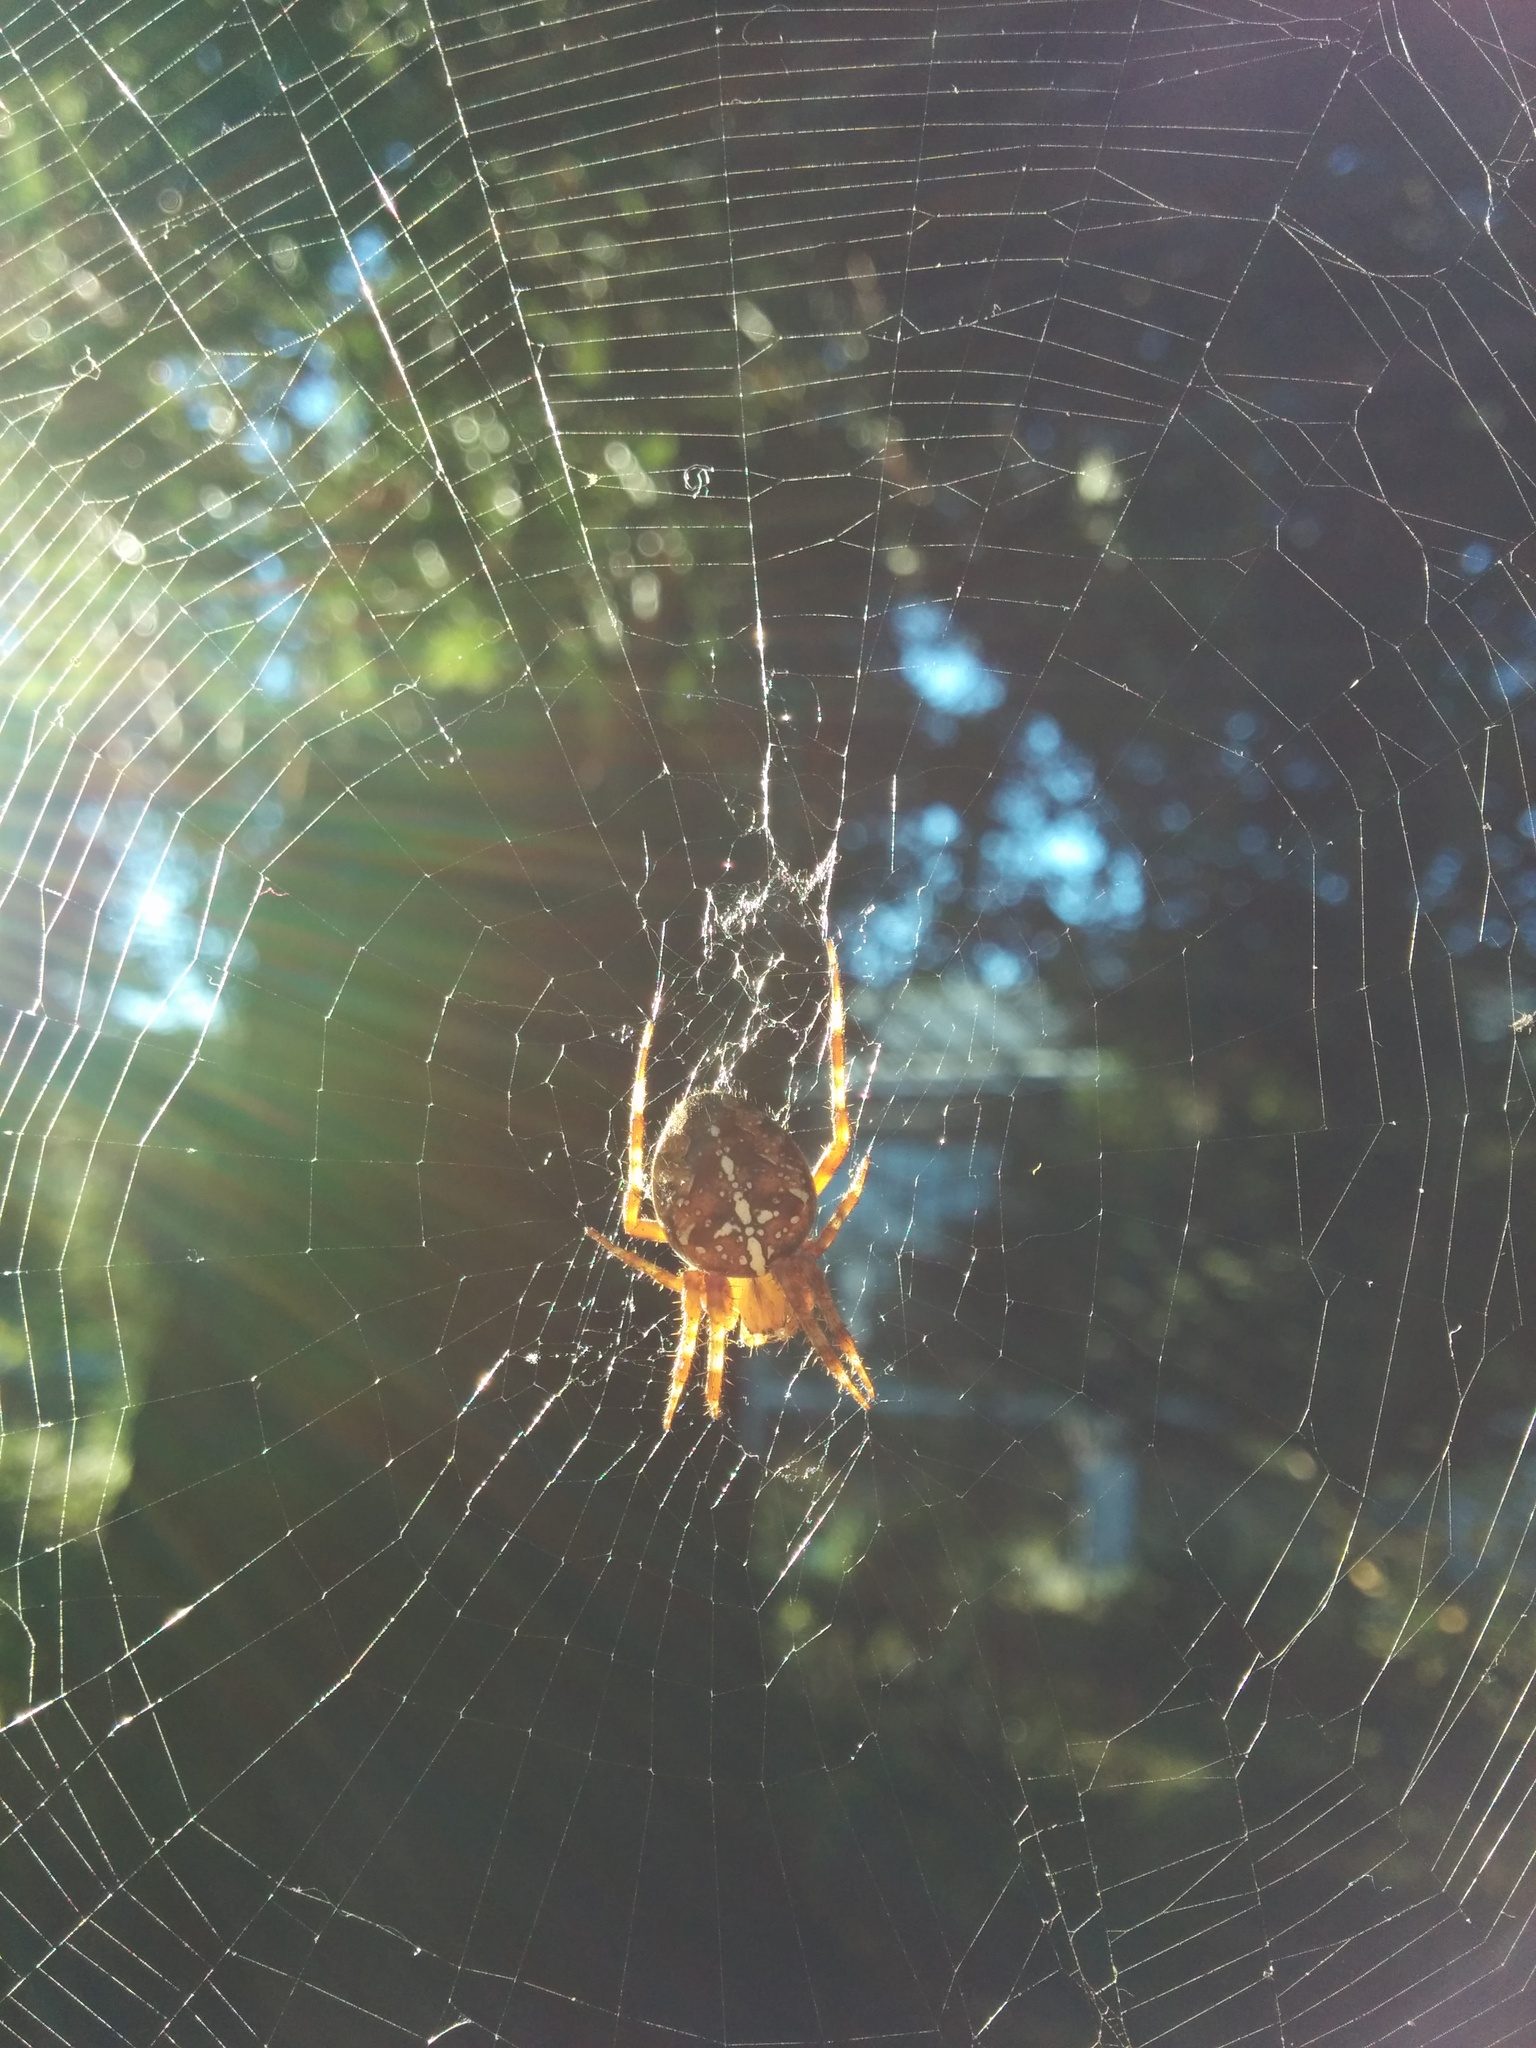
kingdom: Animalia
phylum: Arthropoda
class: Arachnida
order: Araneae
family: Araneidae
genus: Araneus
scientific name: Araneus diadematus
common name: Cross orbweaver
